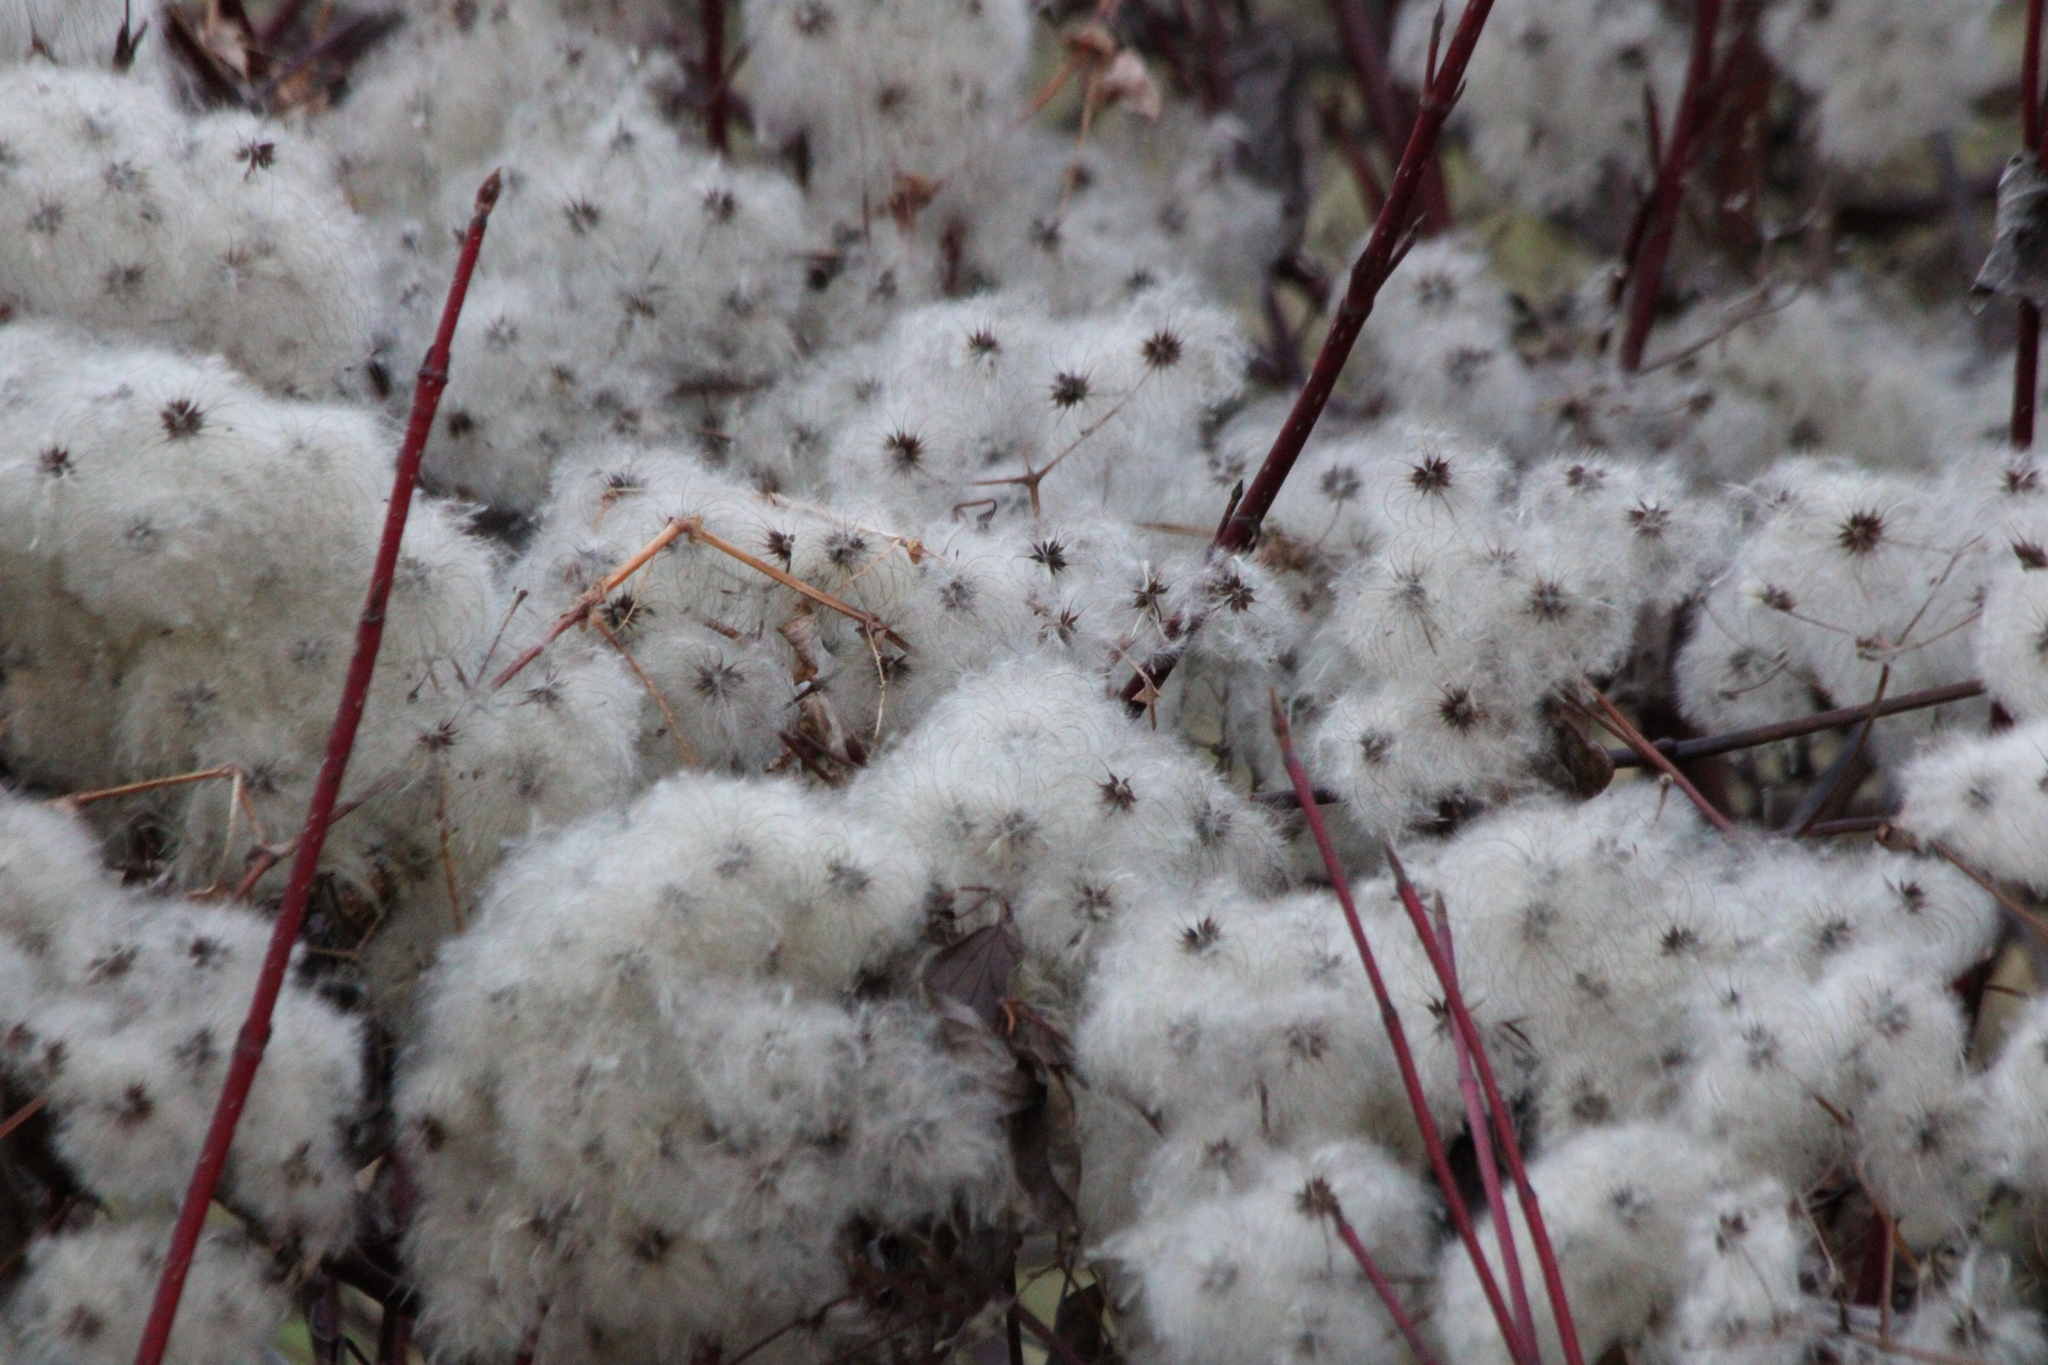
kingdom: Plantae
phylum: Tracheophyta
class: Magnoliopsida
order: Ranunculales
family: Ranunculaceae
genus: Clematis
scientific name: Clematis virginiana
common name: Virgin's-bower
